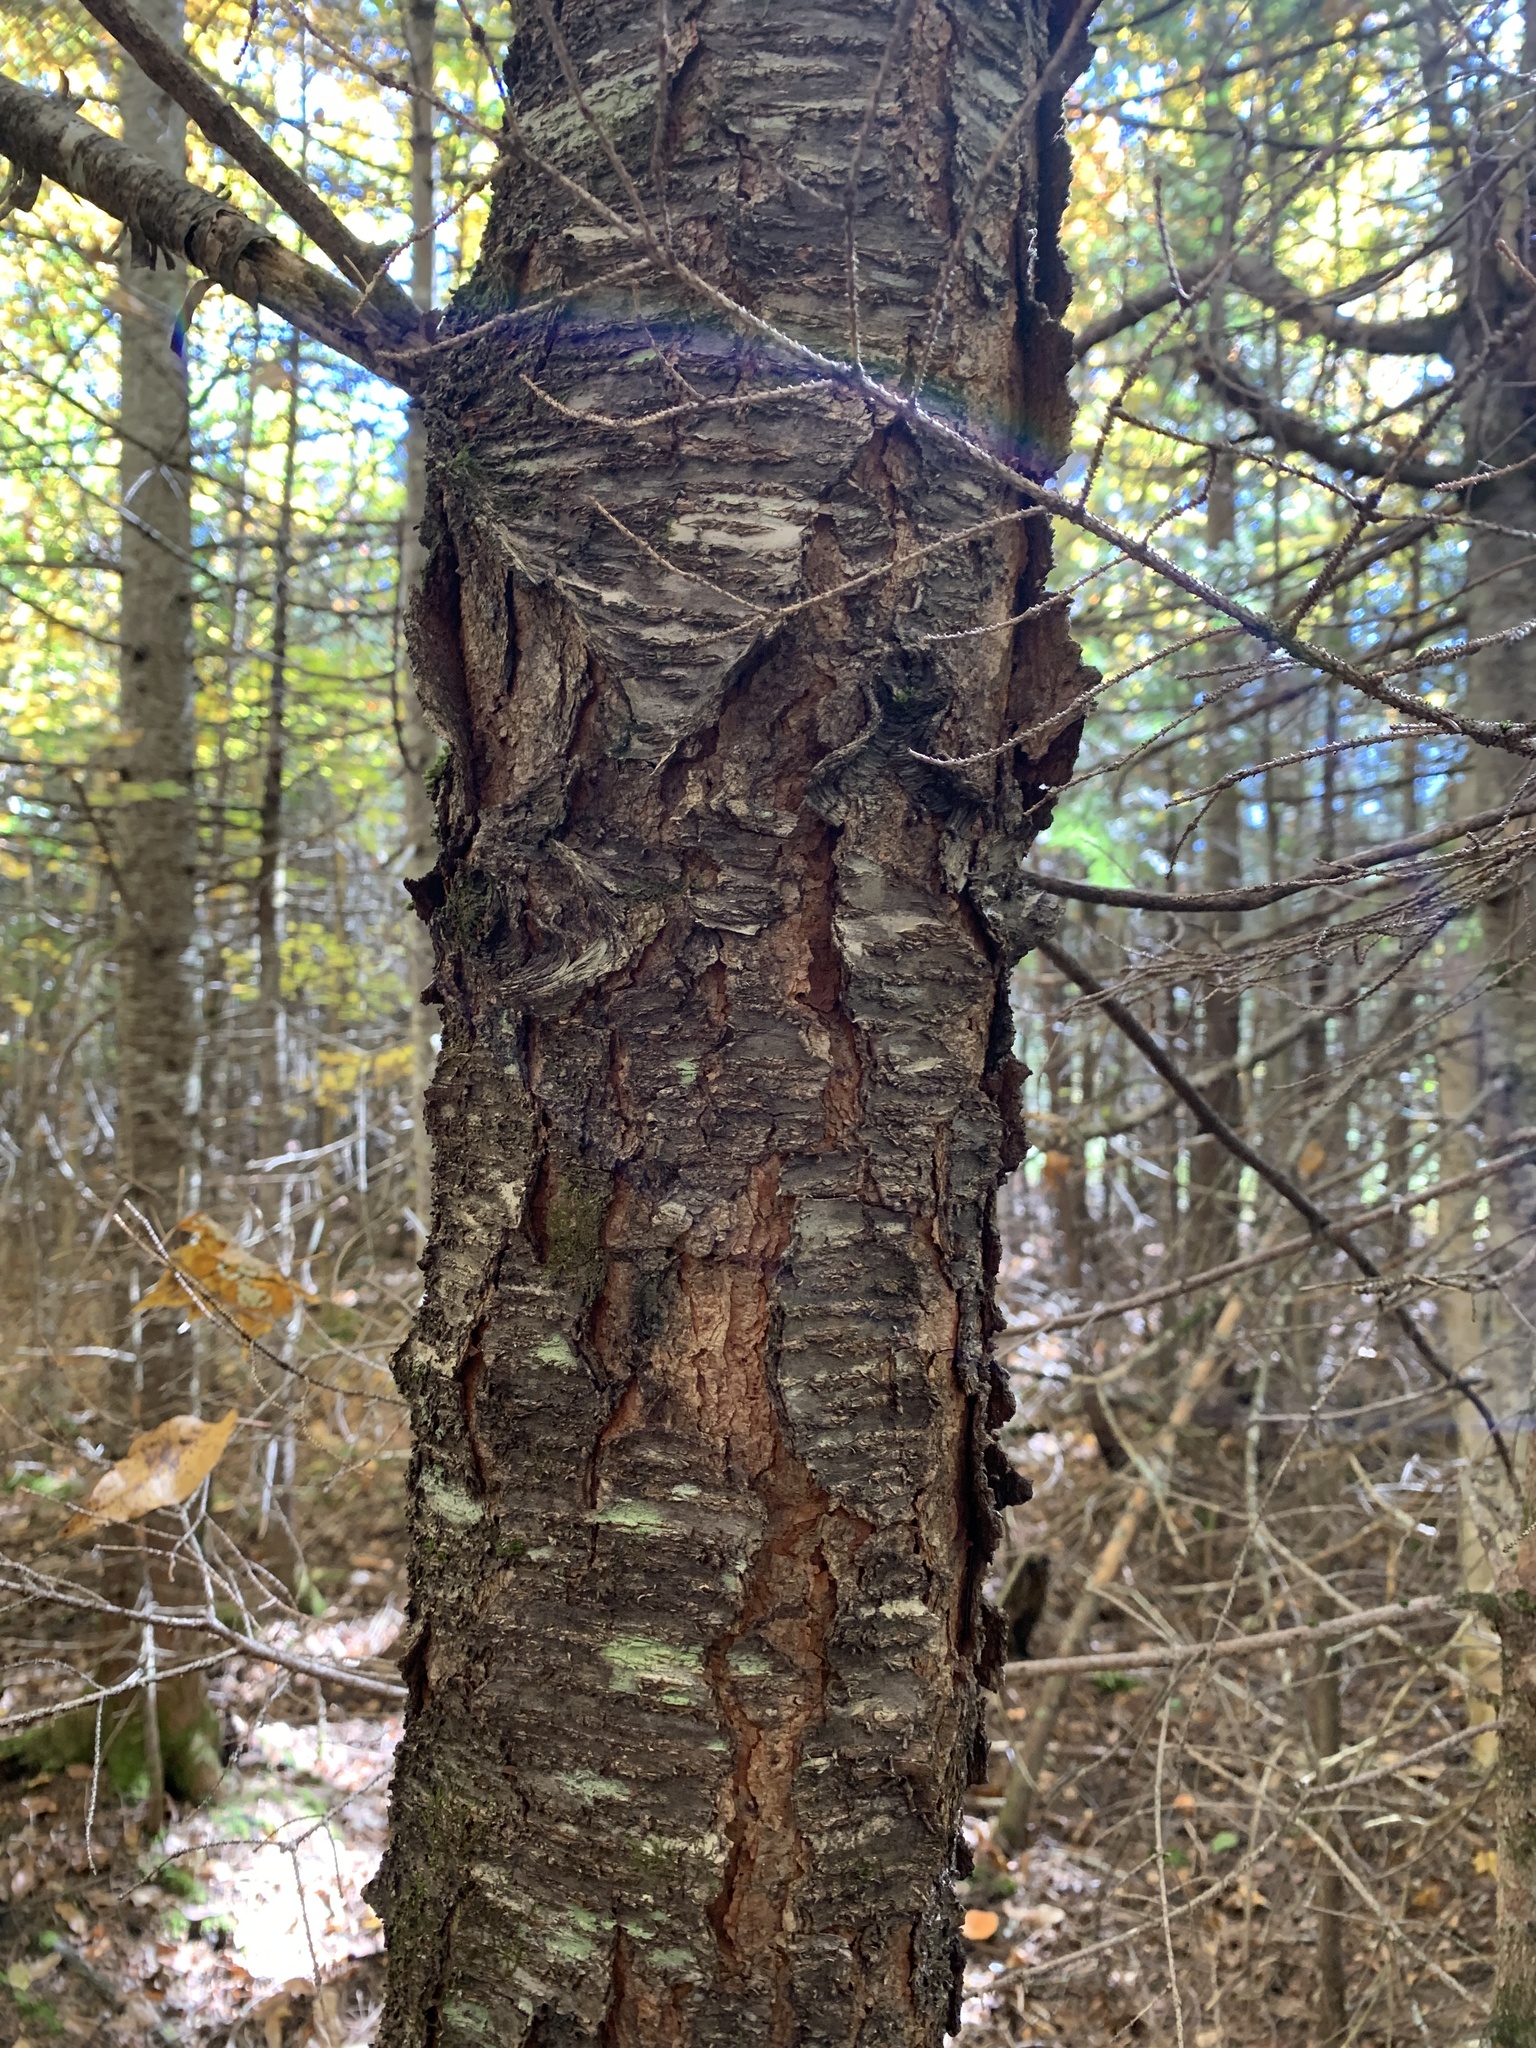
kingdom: Plantae
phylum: Tracheophyta
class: Magnoliopsida
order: Rosales
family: Rosaceae
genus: Prunus
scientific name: Prunus serotina
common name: Black cherry
